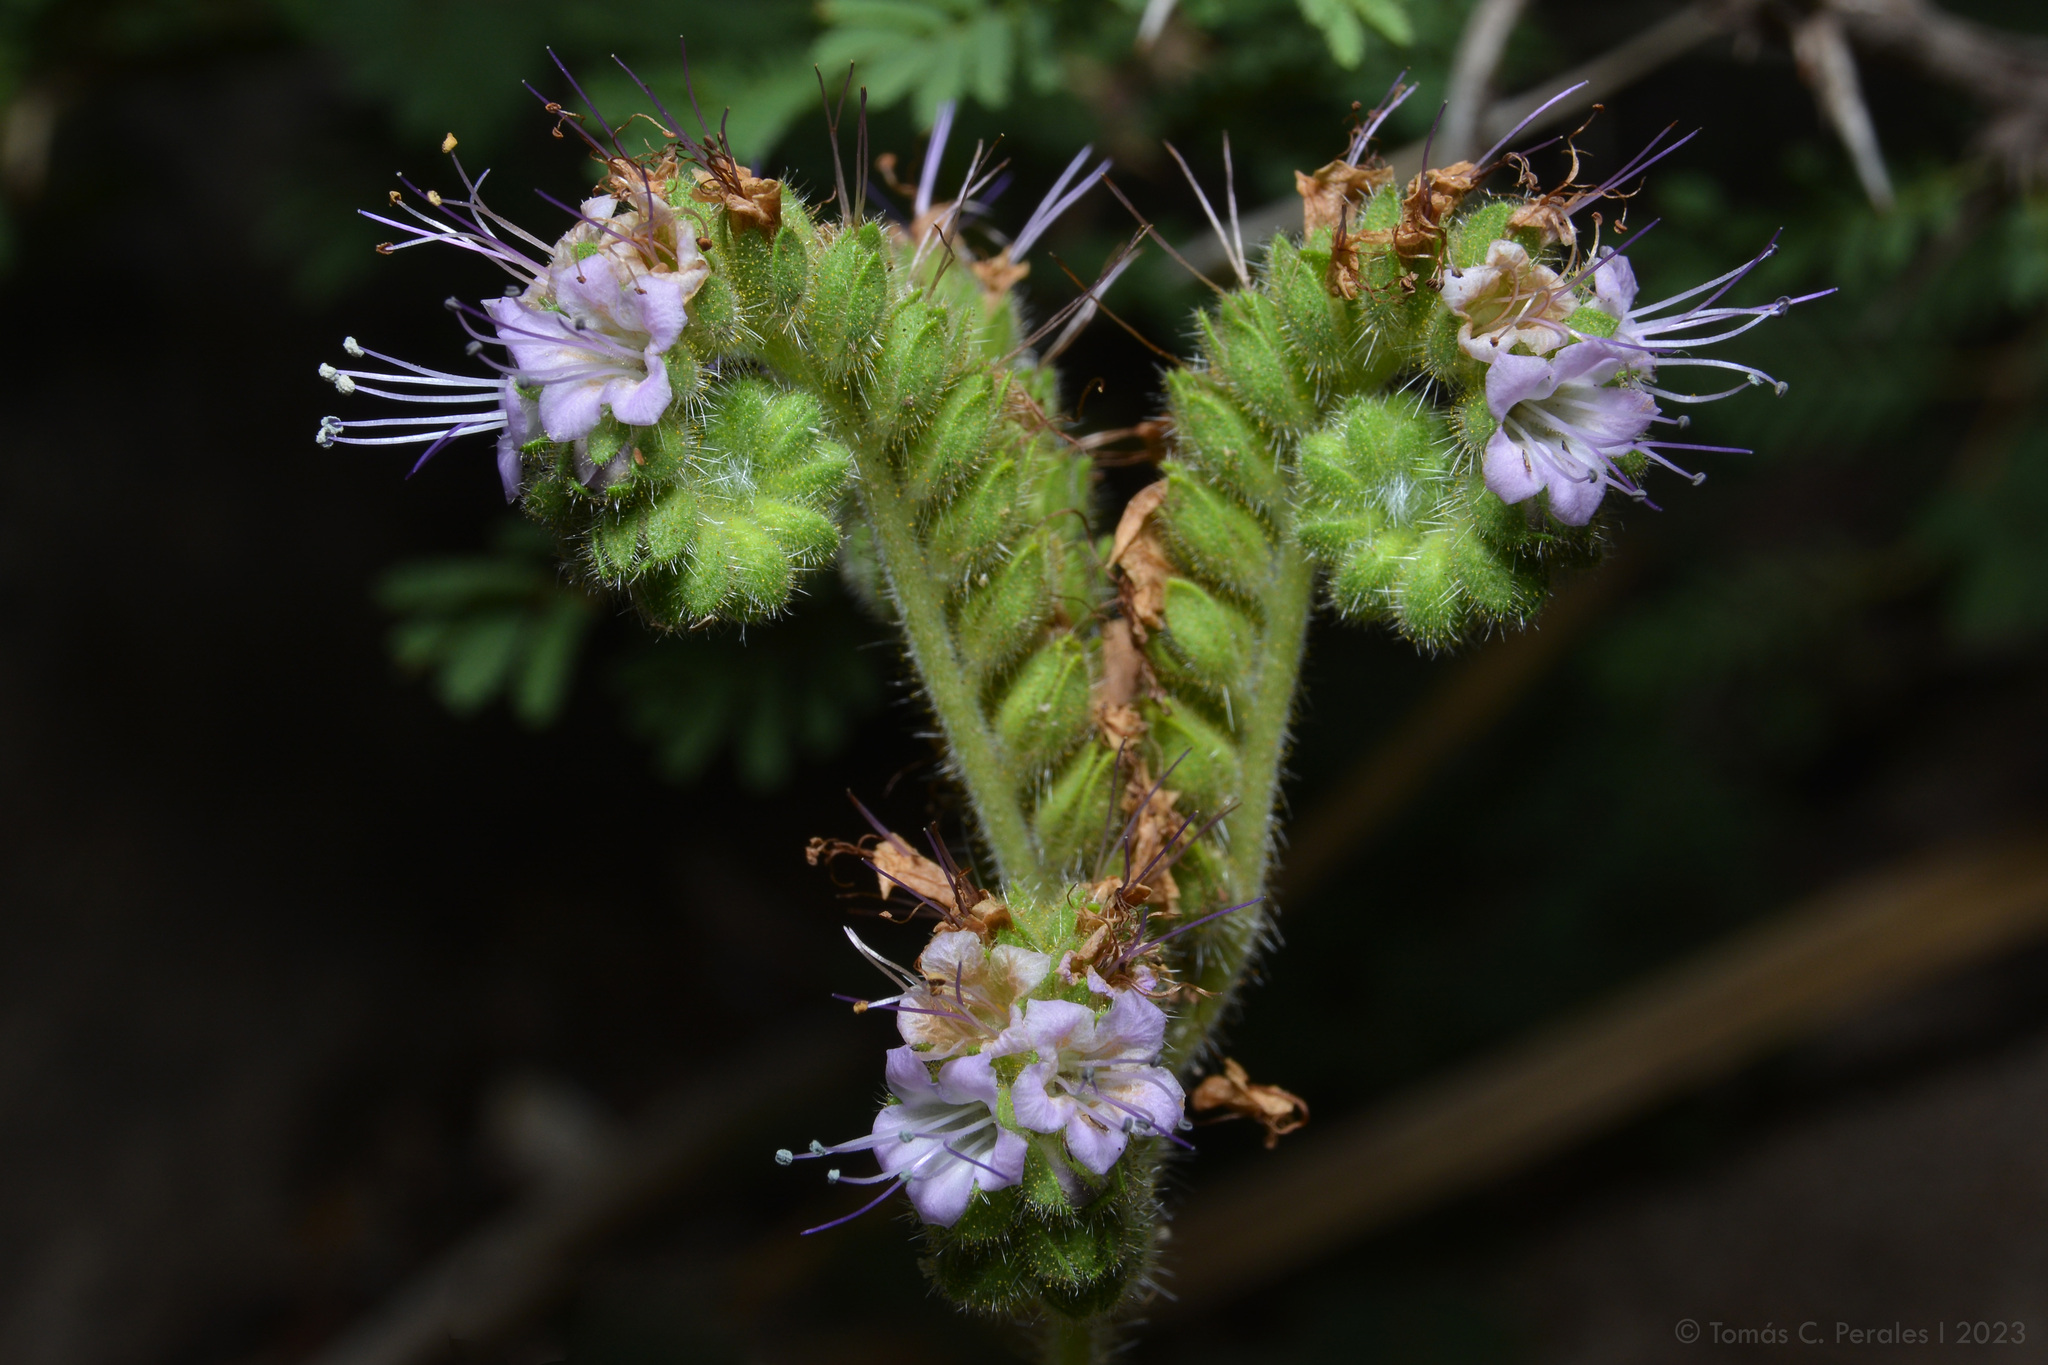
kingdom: Plantae
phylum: Tracheophyta
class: Magnoliopsida
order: Boraginales
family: Hydrophyllaceae
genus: Phacelia
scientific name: Phacelia pinnatifida
